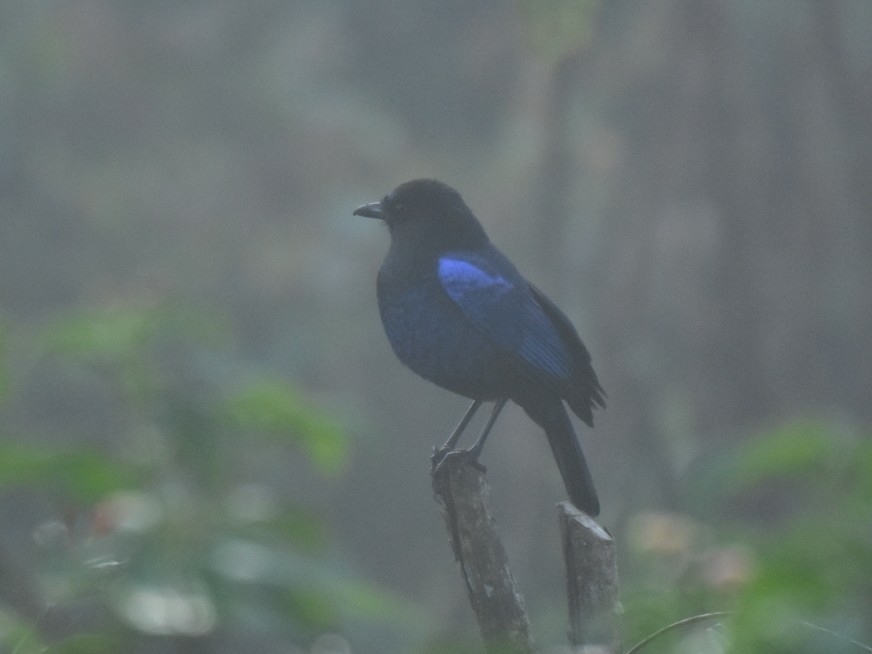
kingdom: Animalia
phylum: Chordata
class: Aves
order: Passeriformes
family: Muscicapidae
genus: Myophonus
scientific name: Myophonus horsfieldii
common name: Malabar whistling-thrush
